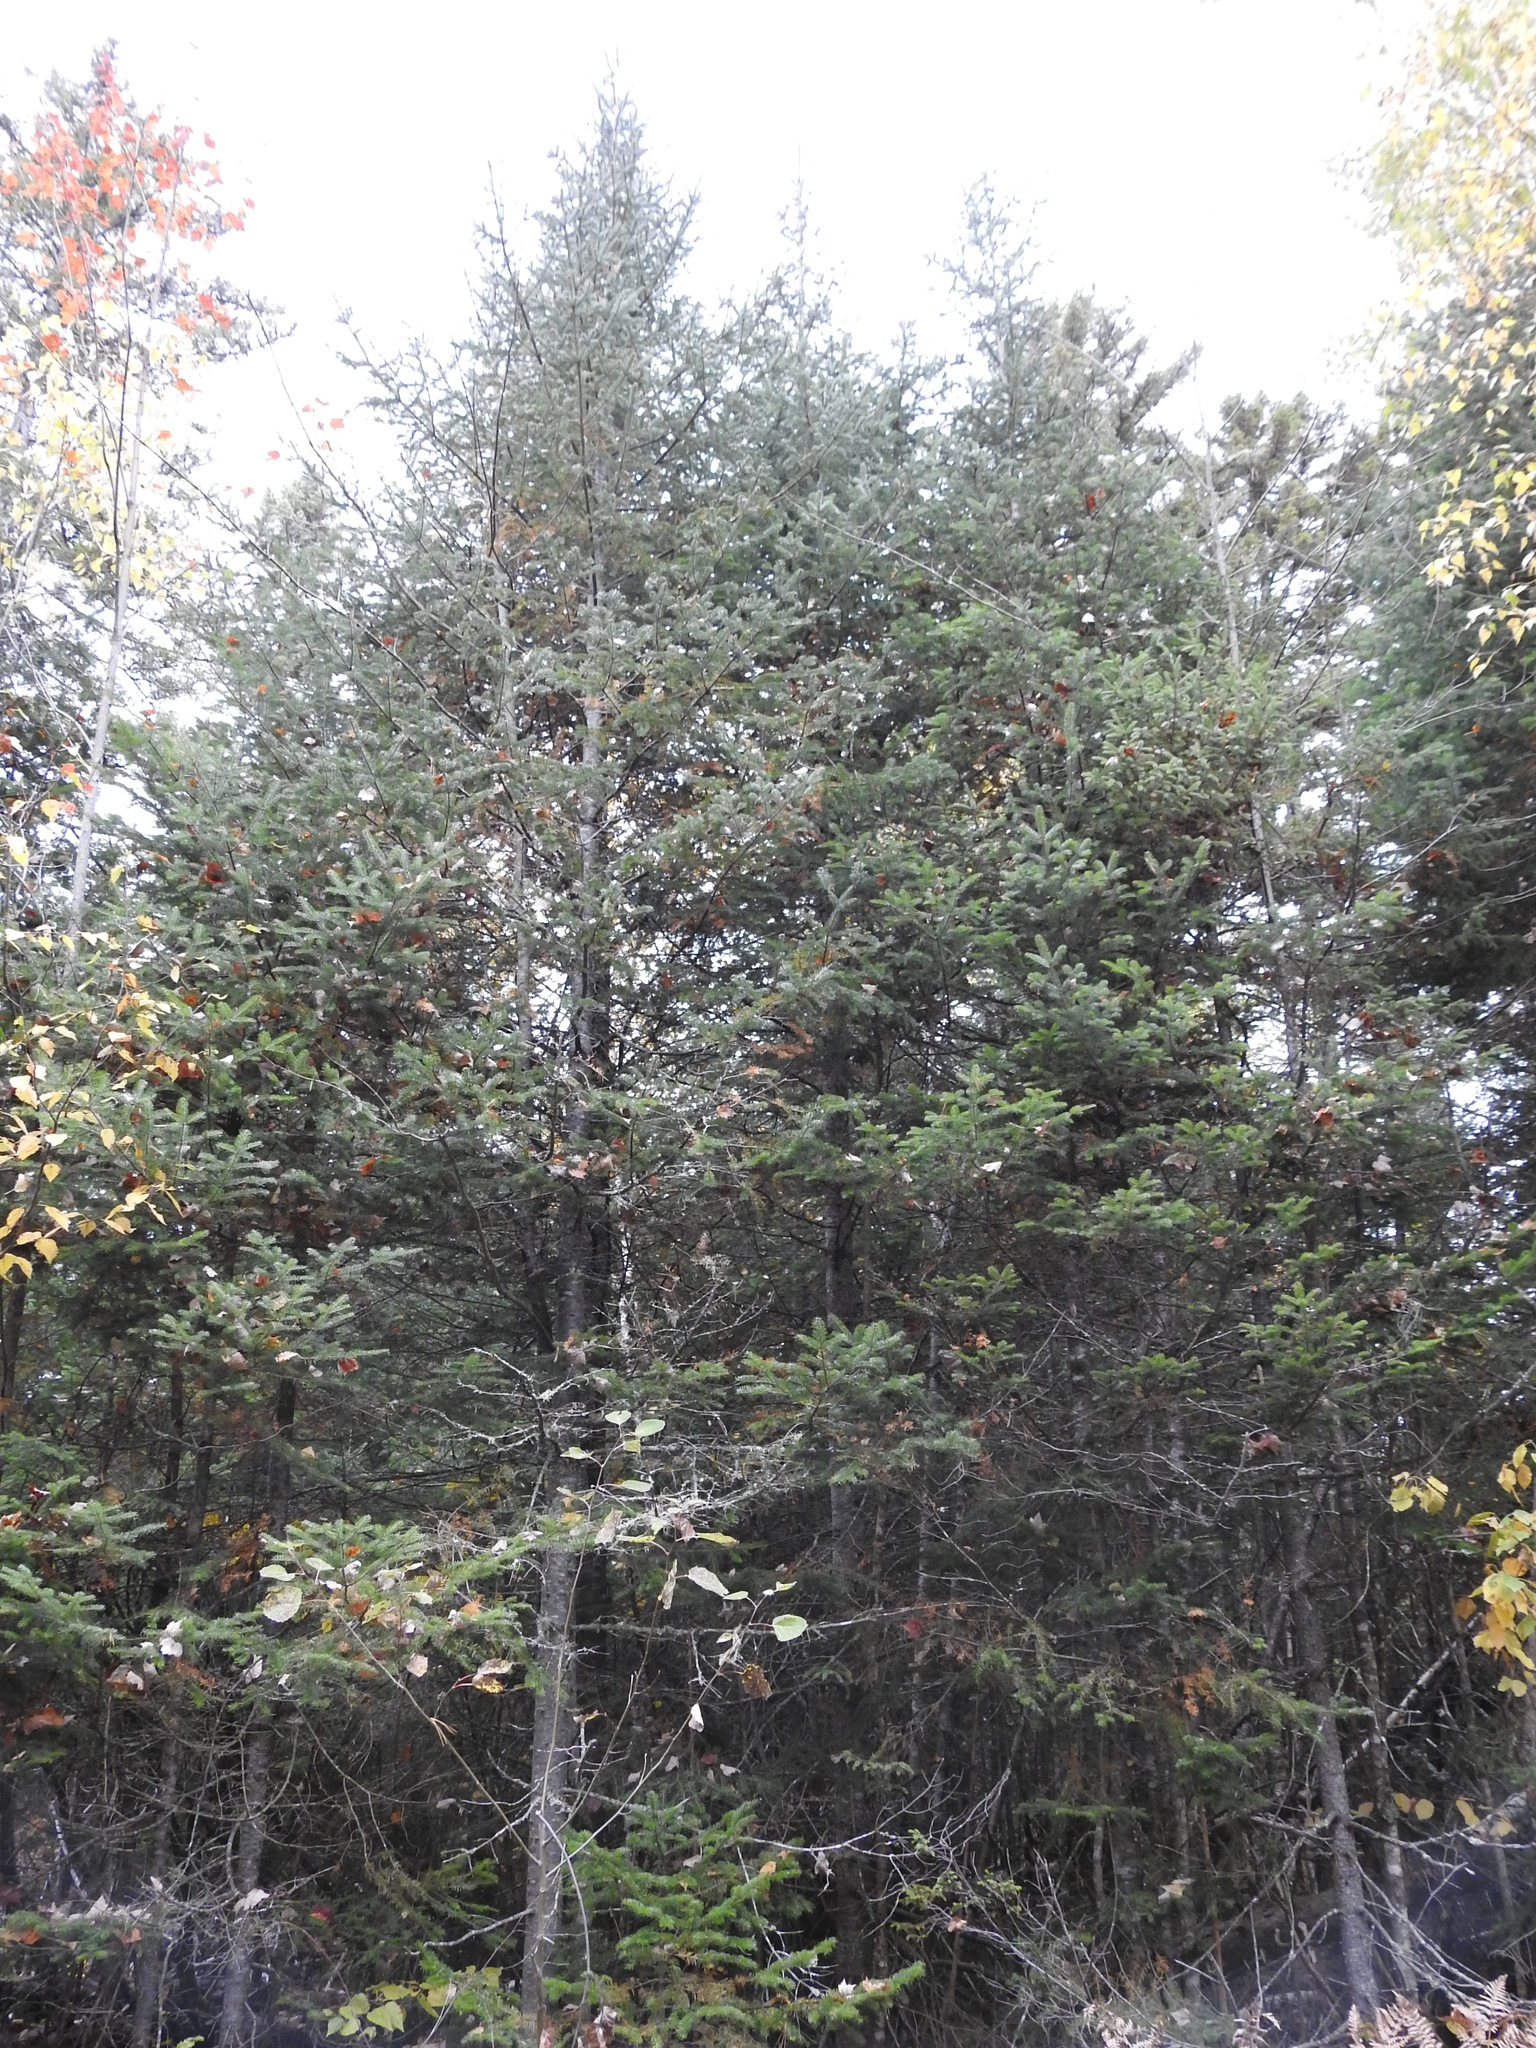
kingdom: Plantae
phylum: Tracheophyta
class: Pinopsida
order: Pinales
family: Pinaceae
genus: Abies
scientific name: Abies balsamea
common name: Balsam fir
